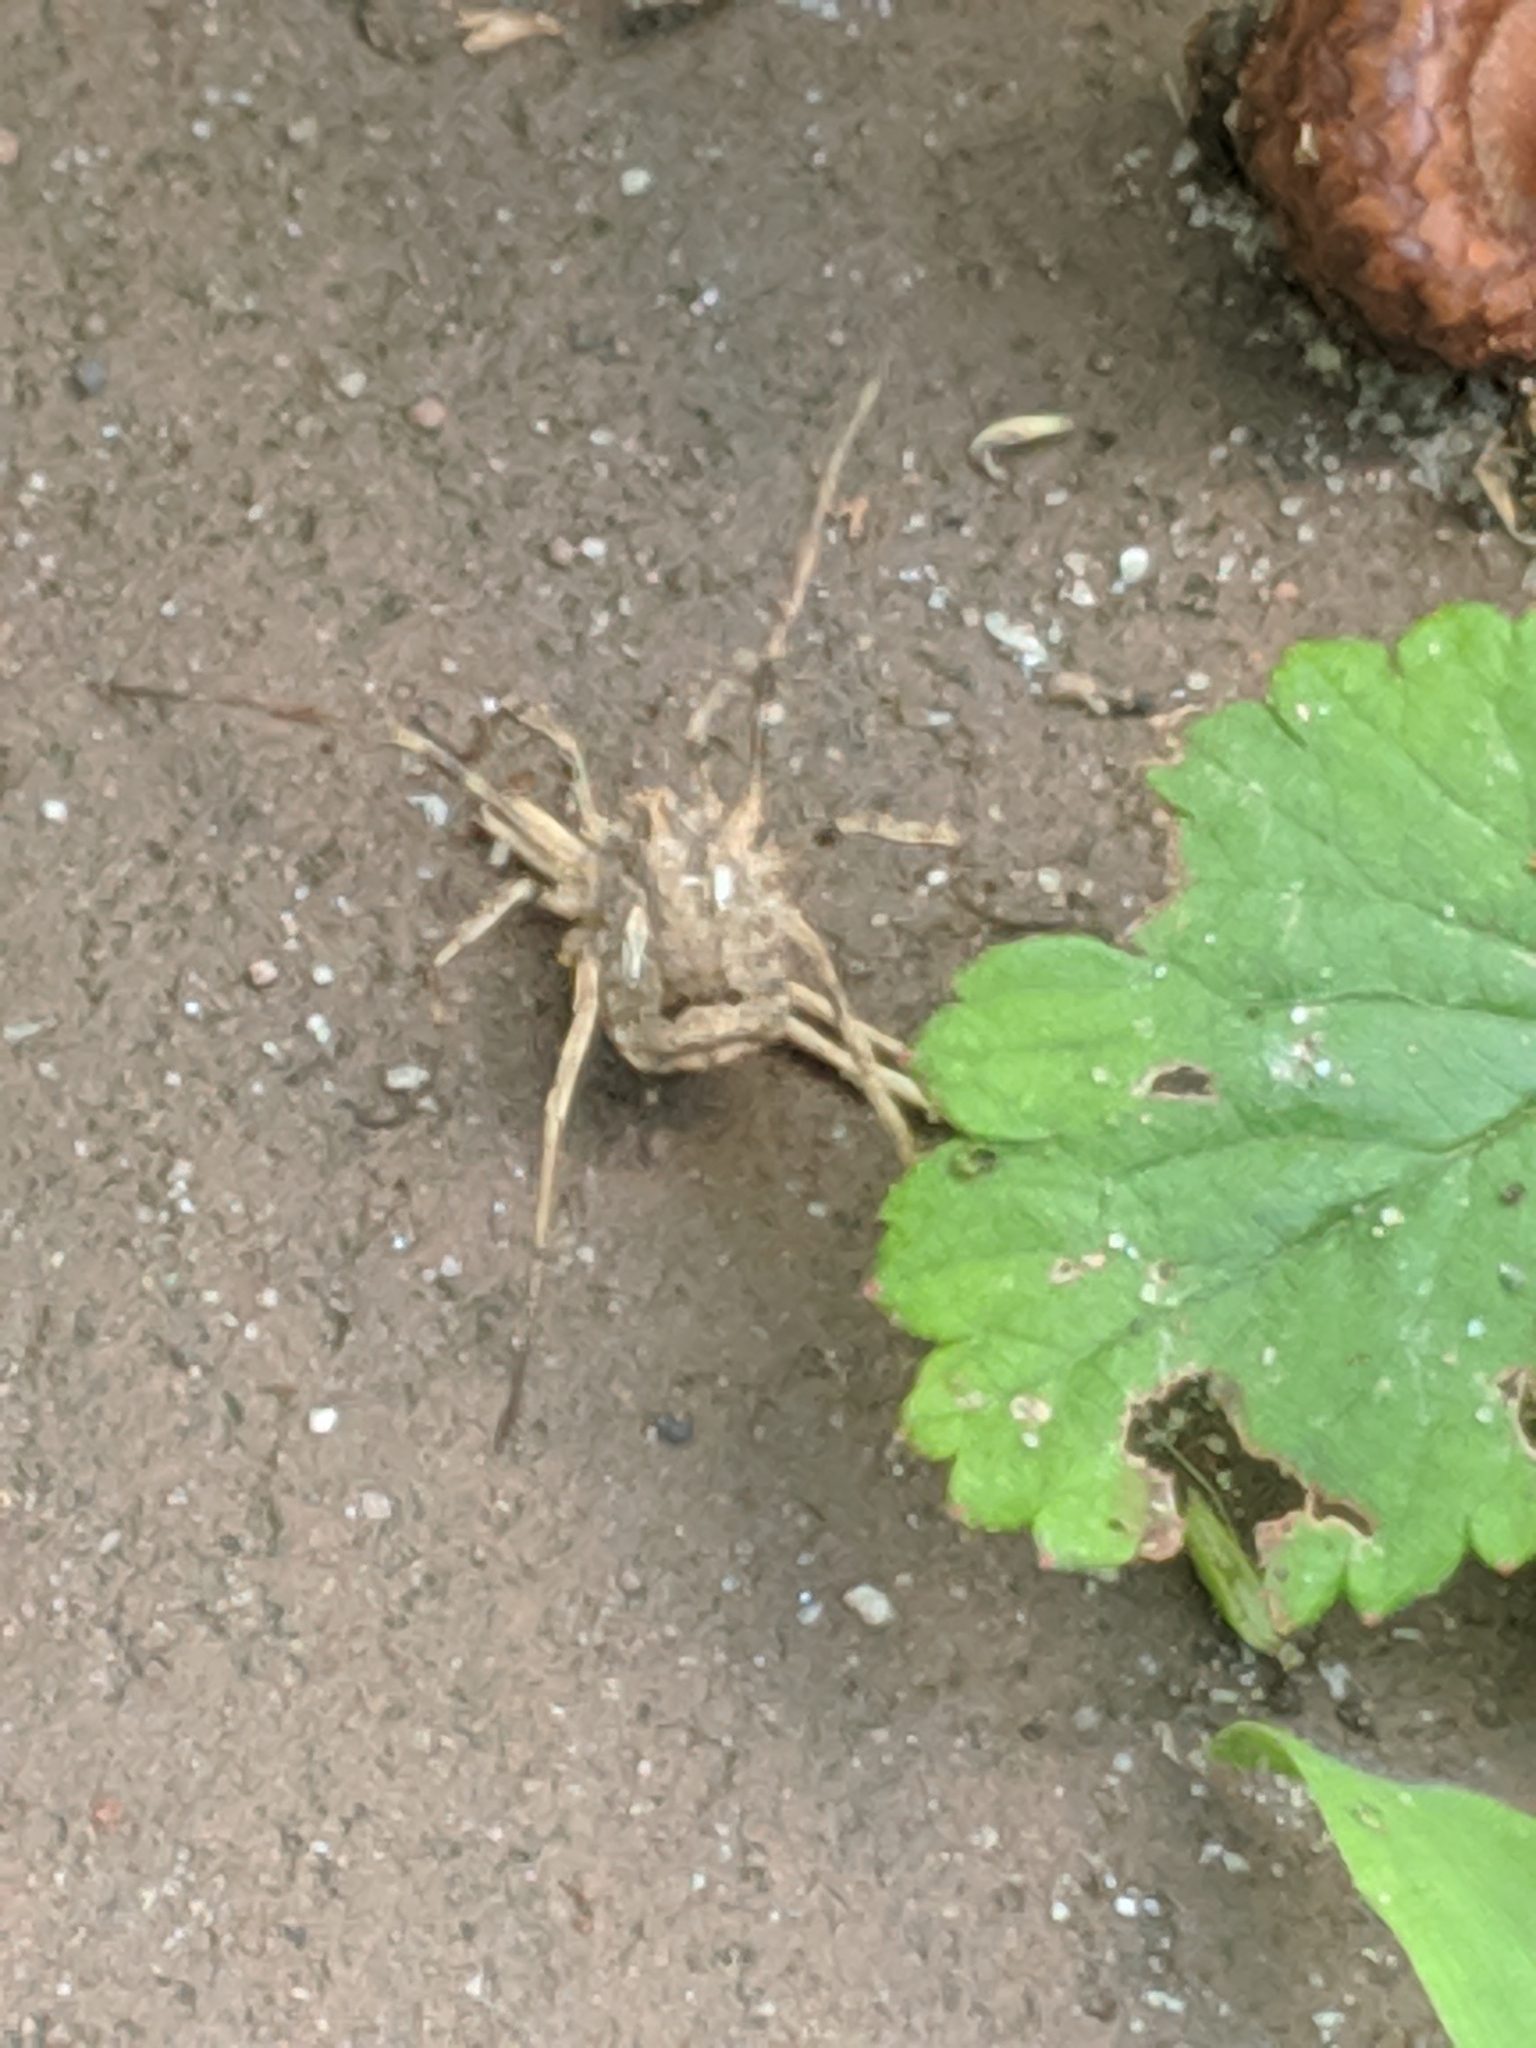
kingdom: Animalia
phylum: Arthropoda
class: Arachnida
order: Opiliones
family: Phalangiidae
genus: Odiellus
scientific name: Odiellus spinosus
